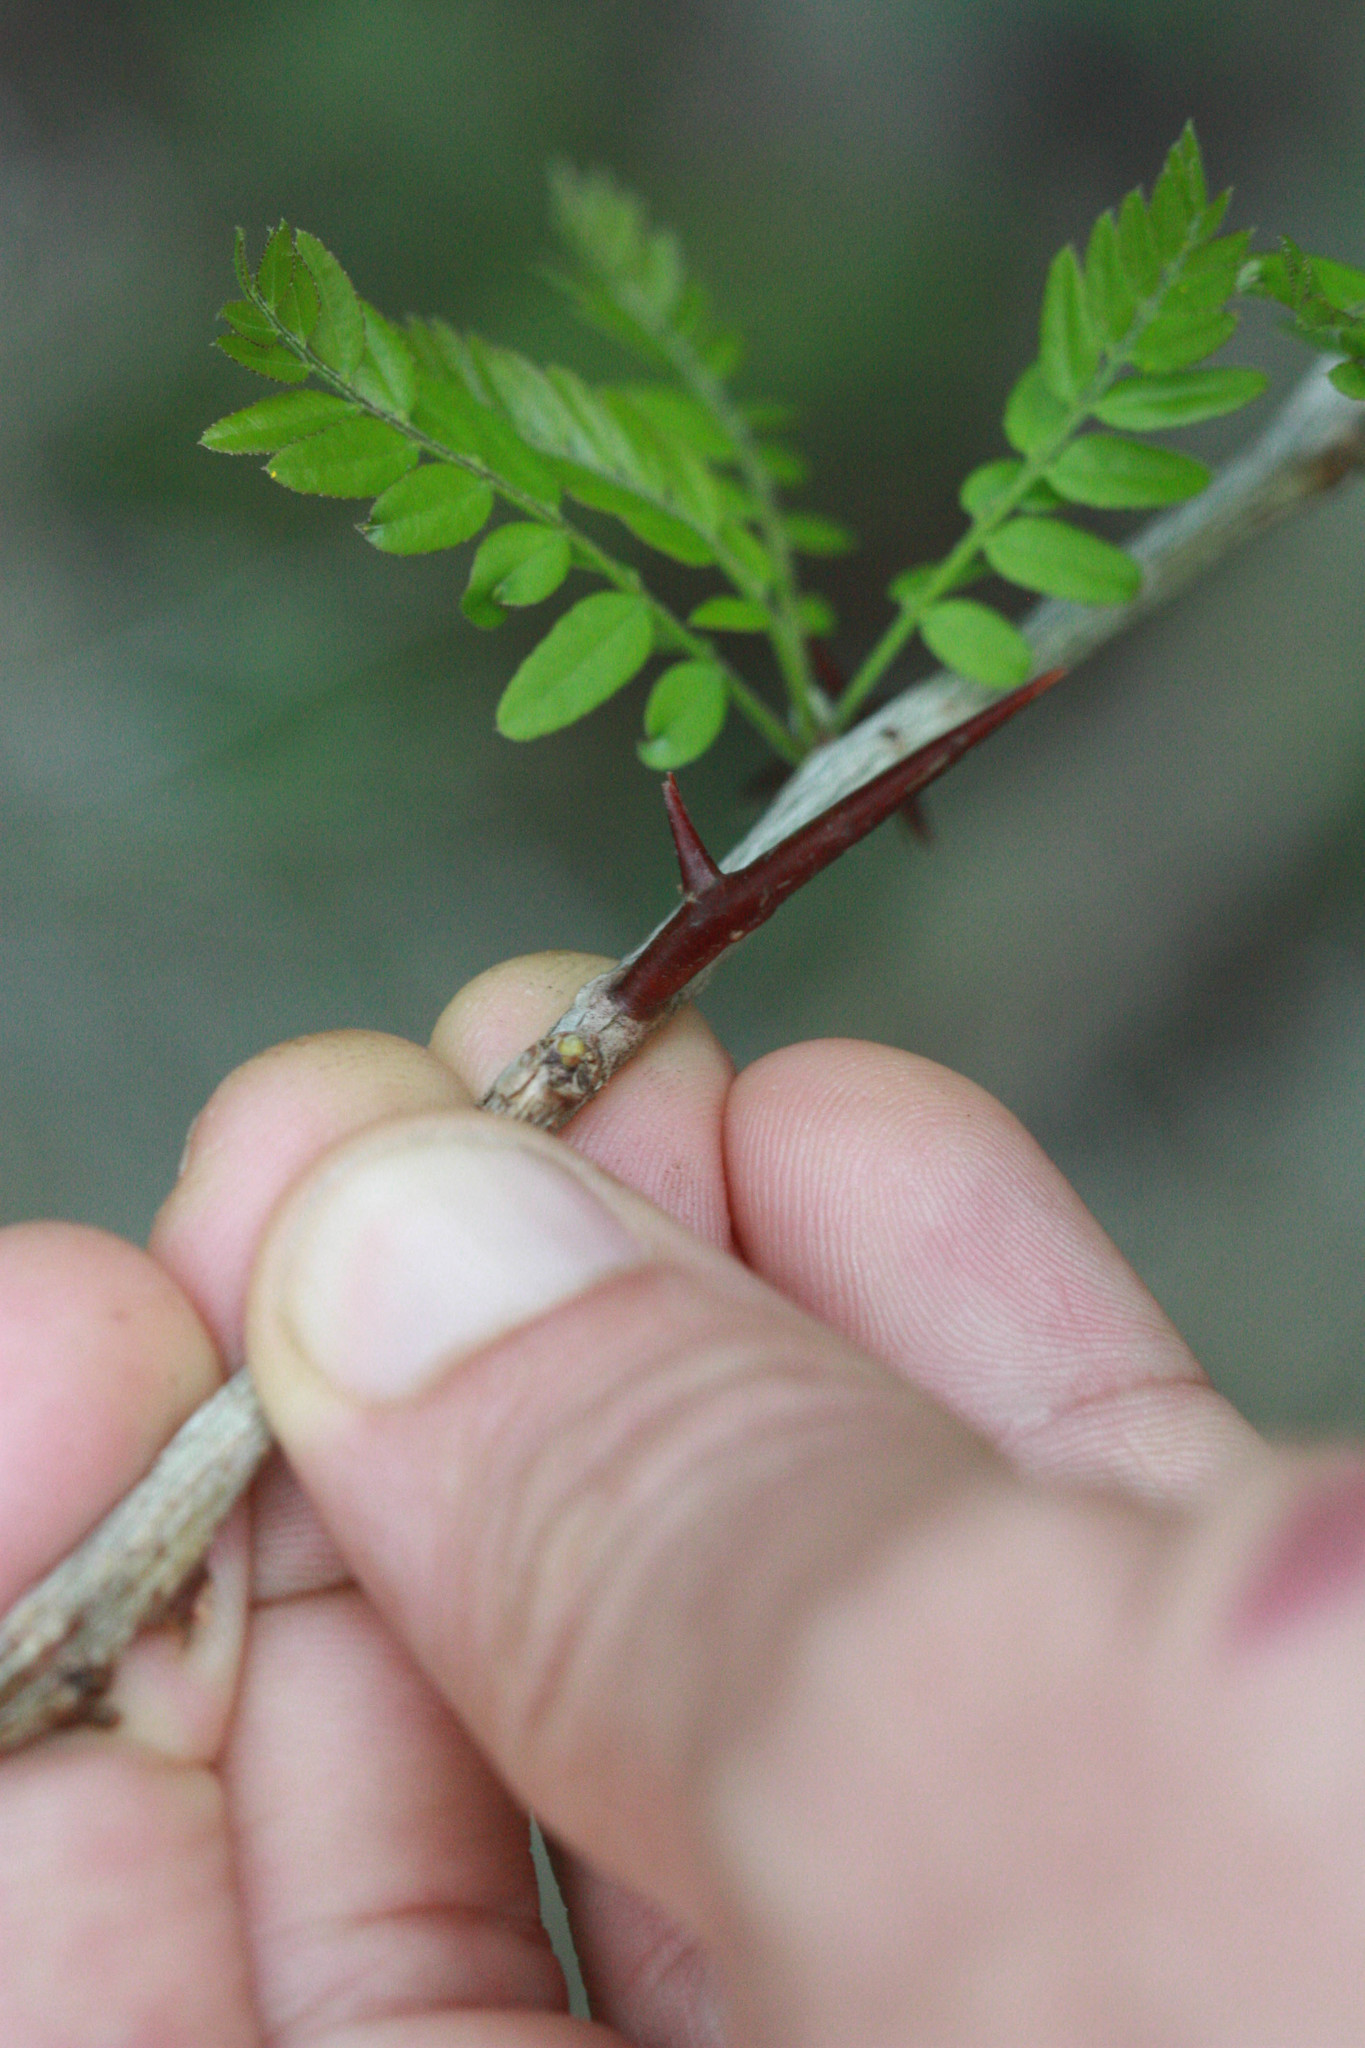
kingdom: Plantae
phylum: Tracheophyta
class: Magnoliopsida
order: Fabales
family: Fabaceae
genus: Gleditsia
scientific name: Gleditsia aquatica
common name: Swamp-locust
